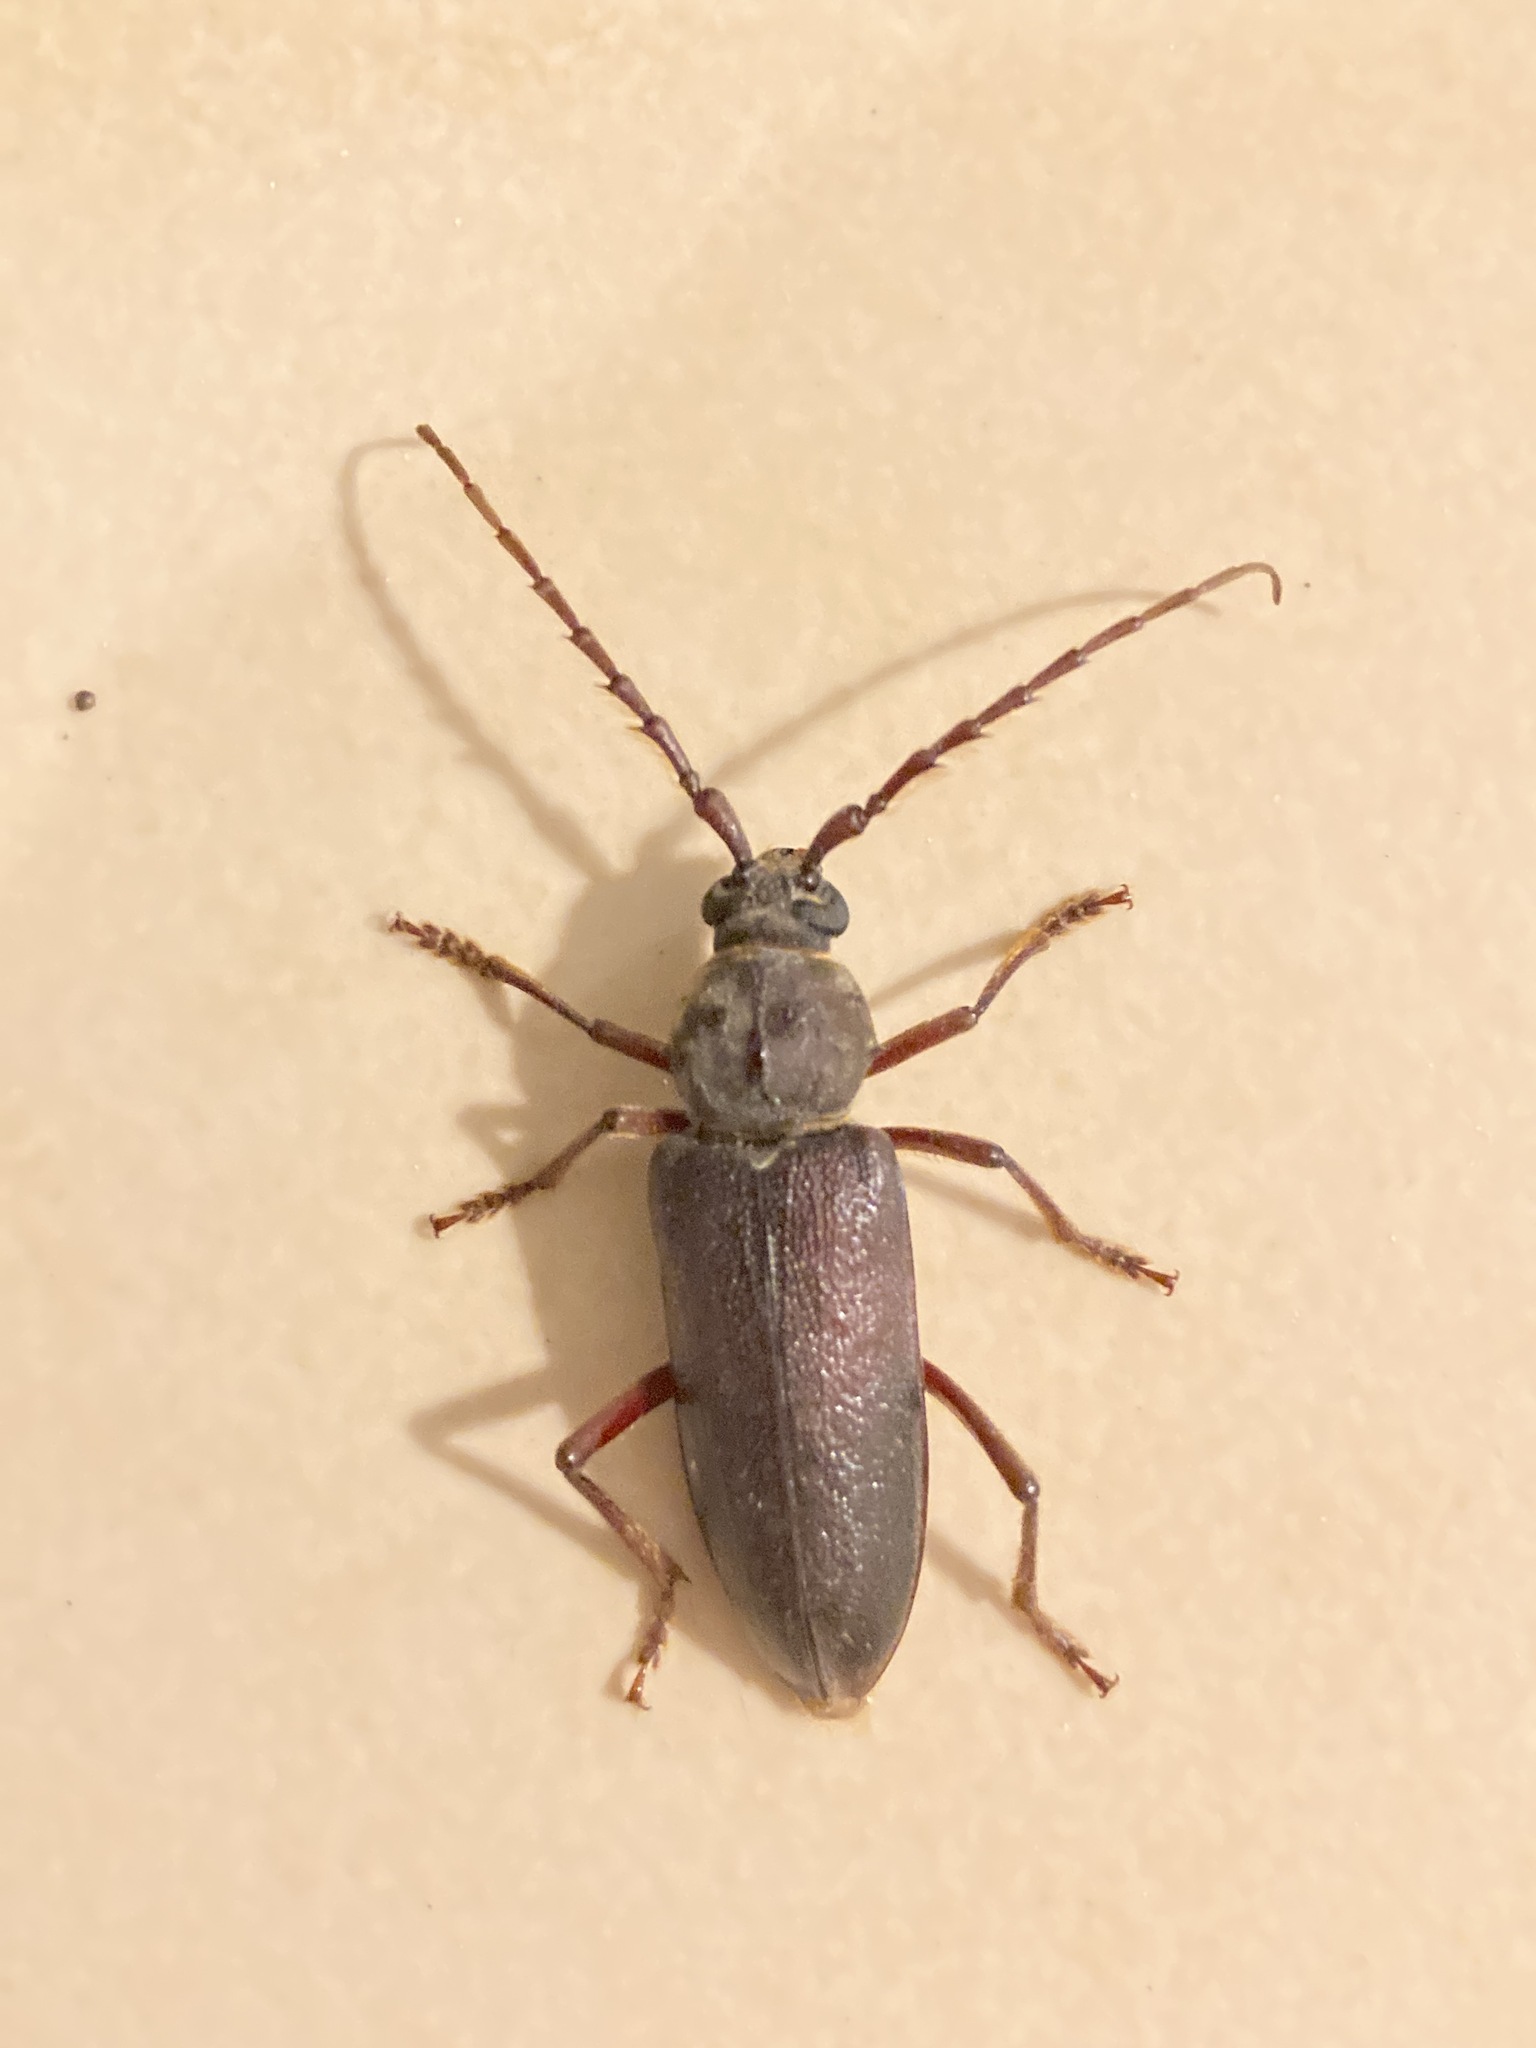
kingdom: Animalia
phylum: Arthropoda
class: Insecta
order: Coleoptera
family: Cerambycidae
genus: Orion
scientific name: Orion maurus
